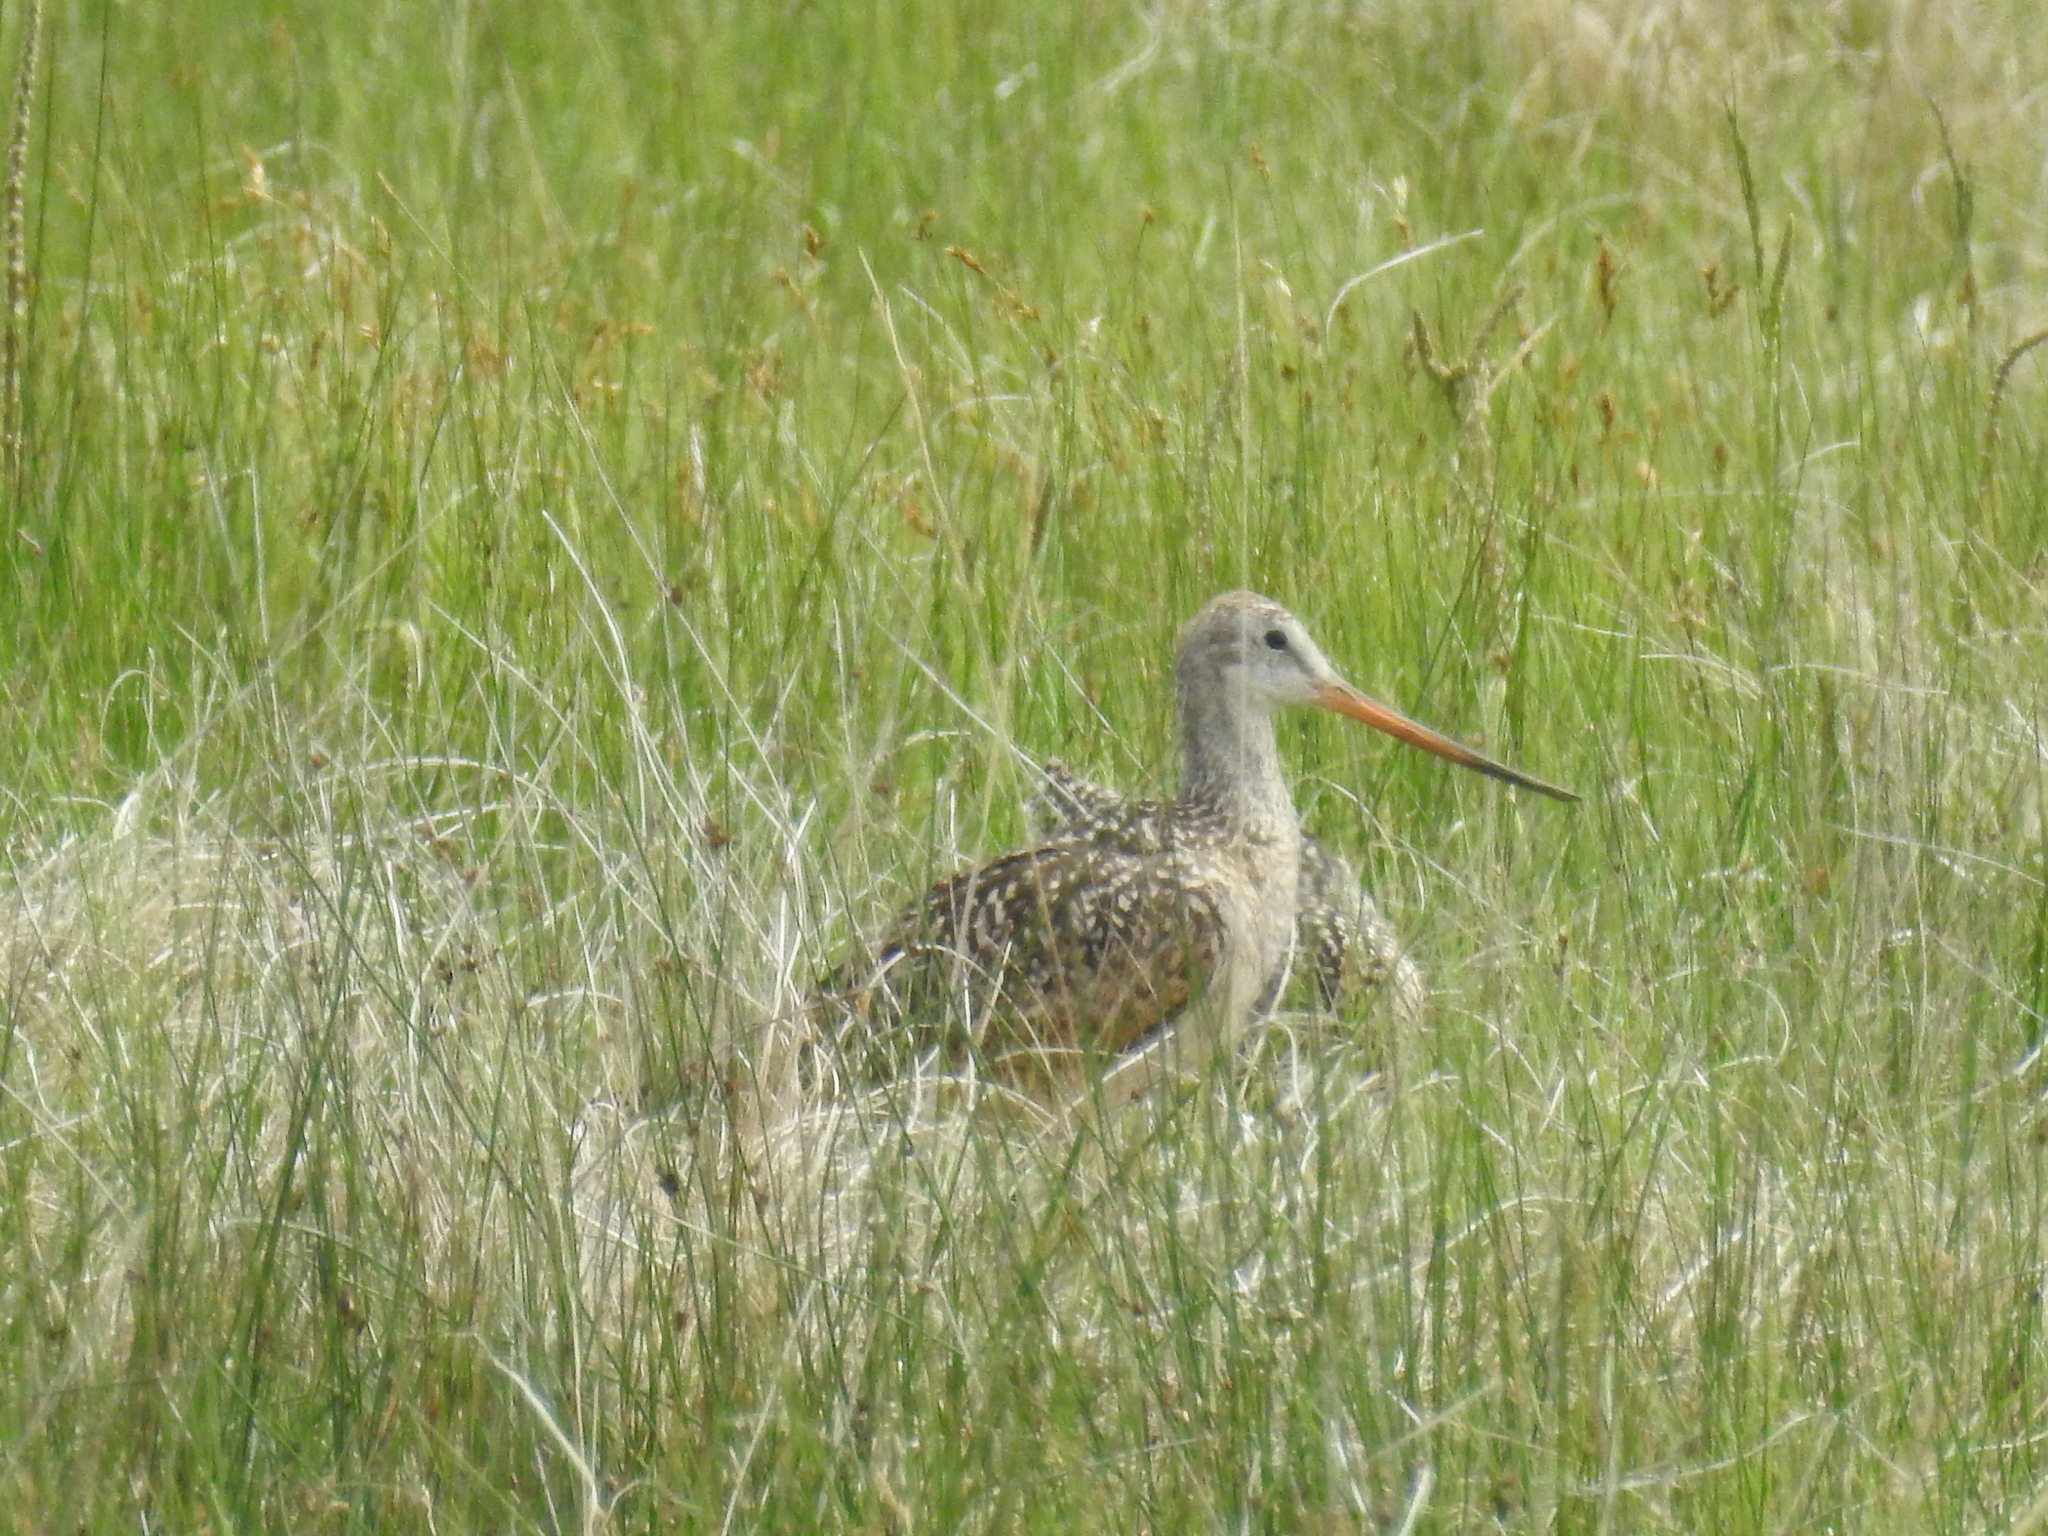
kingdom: Animalia
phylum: Chordata
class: Aves
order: Charadriiformes
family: Scolopacidae
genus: Limosa
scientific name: Limosa fedoa
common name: Marbled godwit
